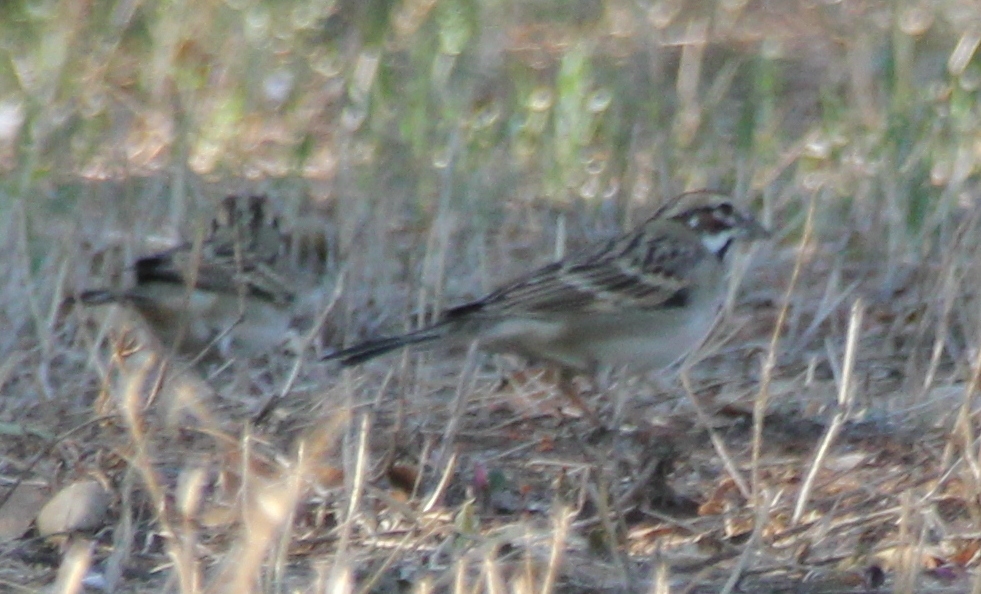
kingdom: Animalia
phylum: Chordata
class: Aves
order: Passeriformes
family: Passerellidae
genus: Chondestes
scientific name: Chondestes grammacus
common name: Lark sparrow
